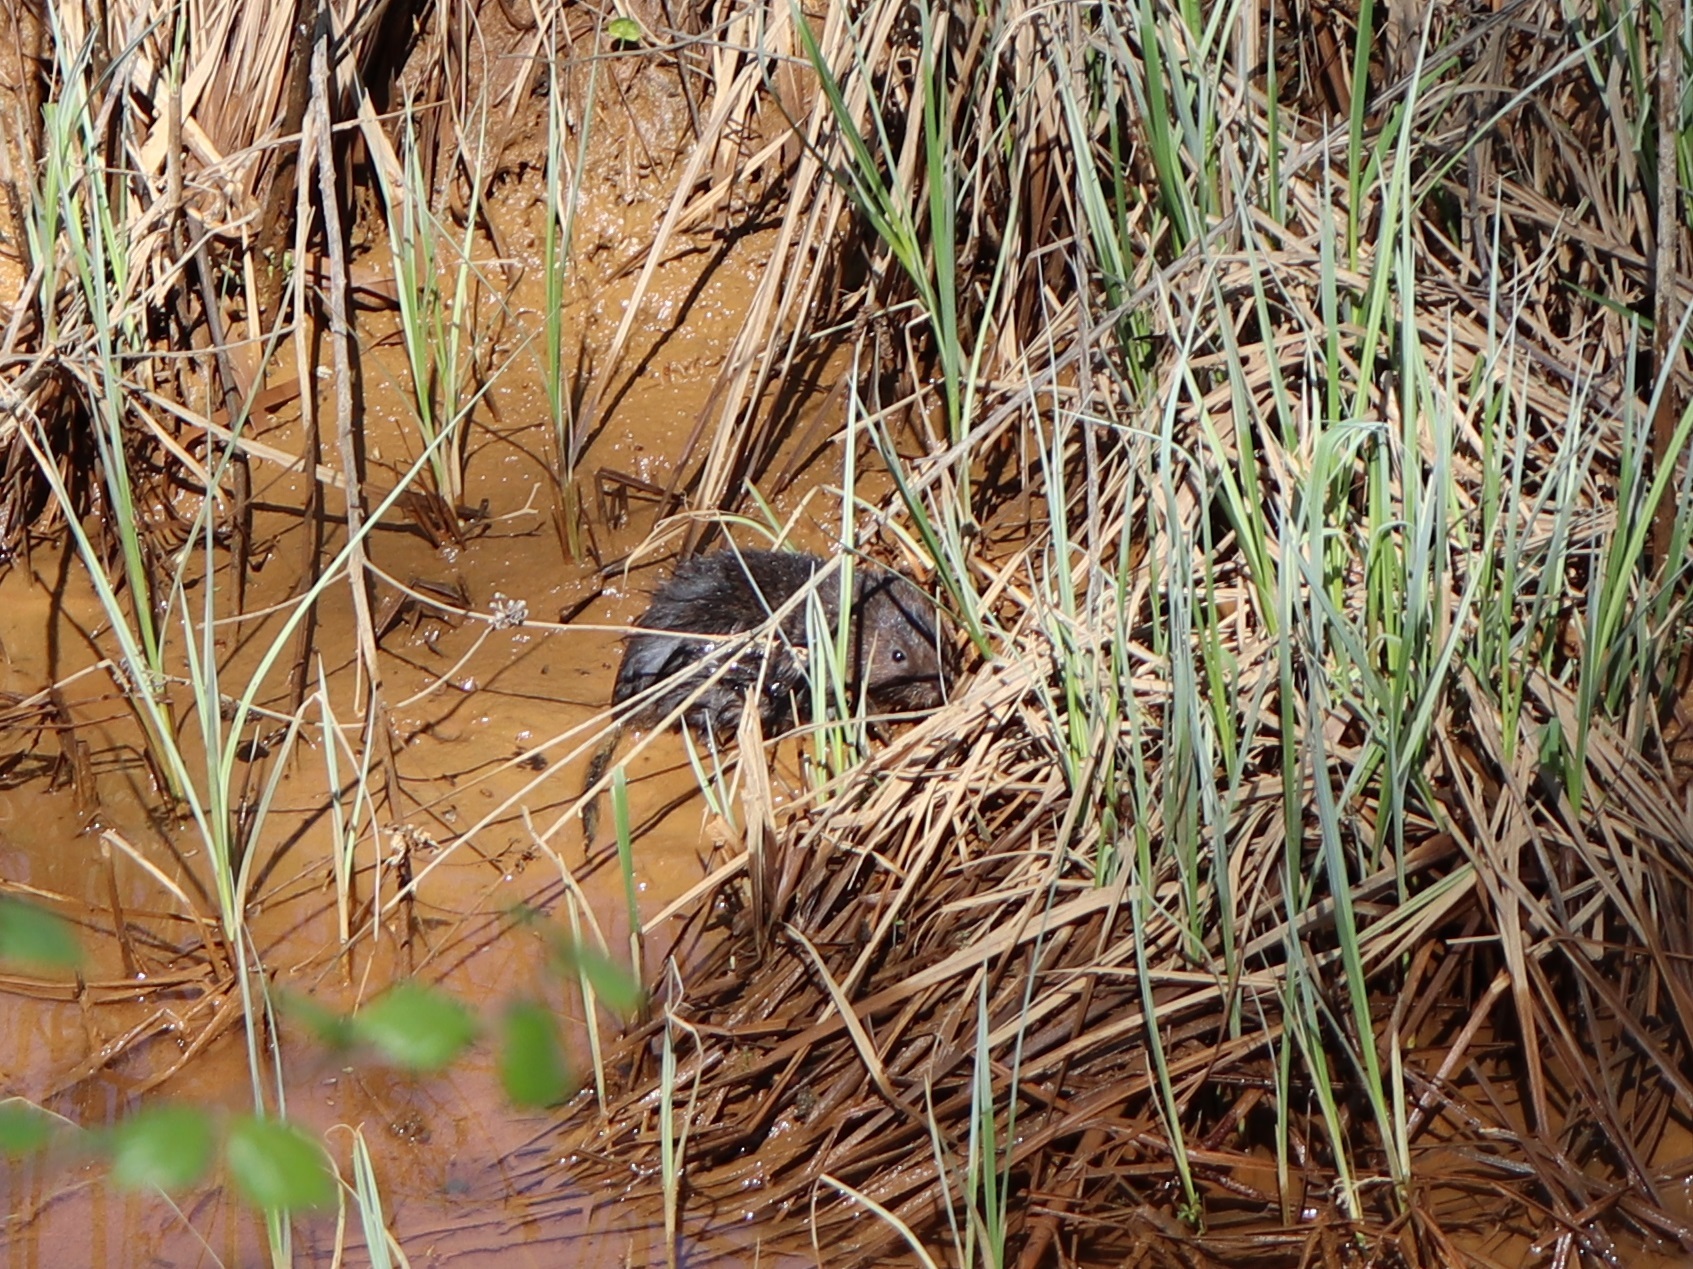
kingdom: Animalia
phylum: Chordata
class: Mammalia
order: Rodentia
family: Cricetidae
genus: Arvicola
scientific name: Arvicola amphibius
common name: European water vole
